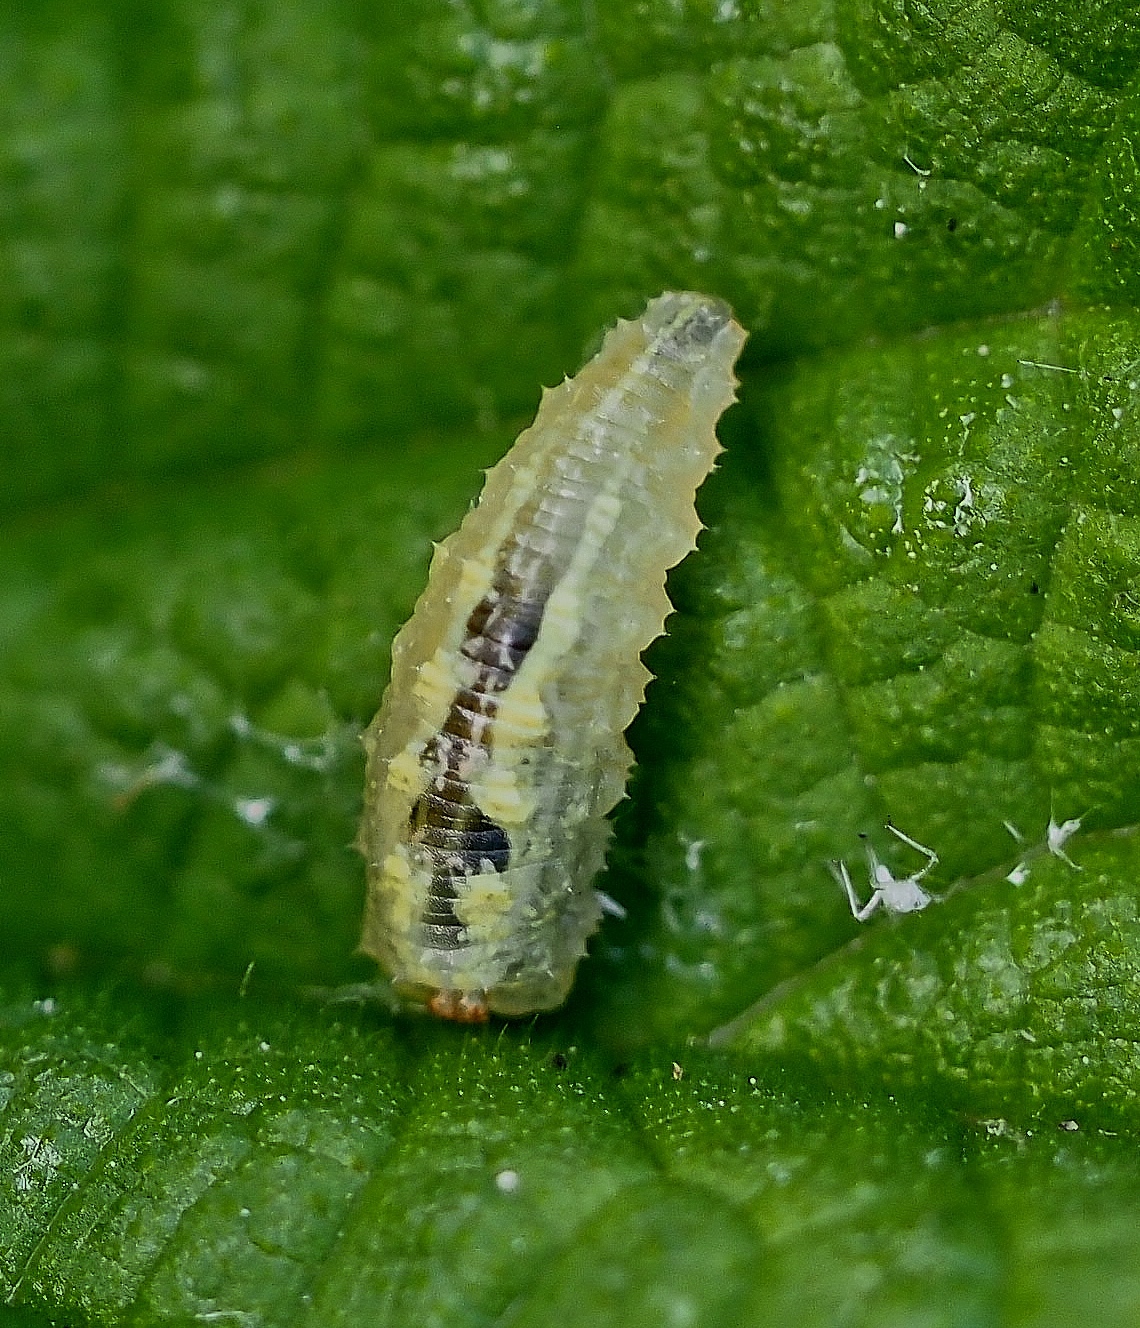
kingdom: Animalia
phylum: Arthropoda
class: Insecta
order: Diptera
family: Syrphidae
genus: Syrphus
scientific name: Syrphus
